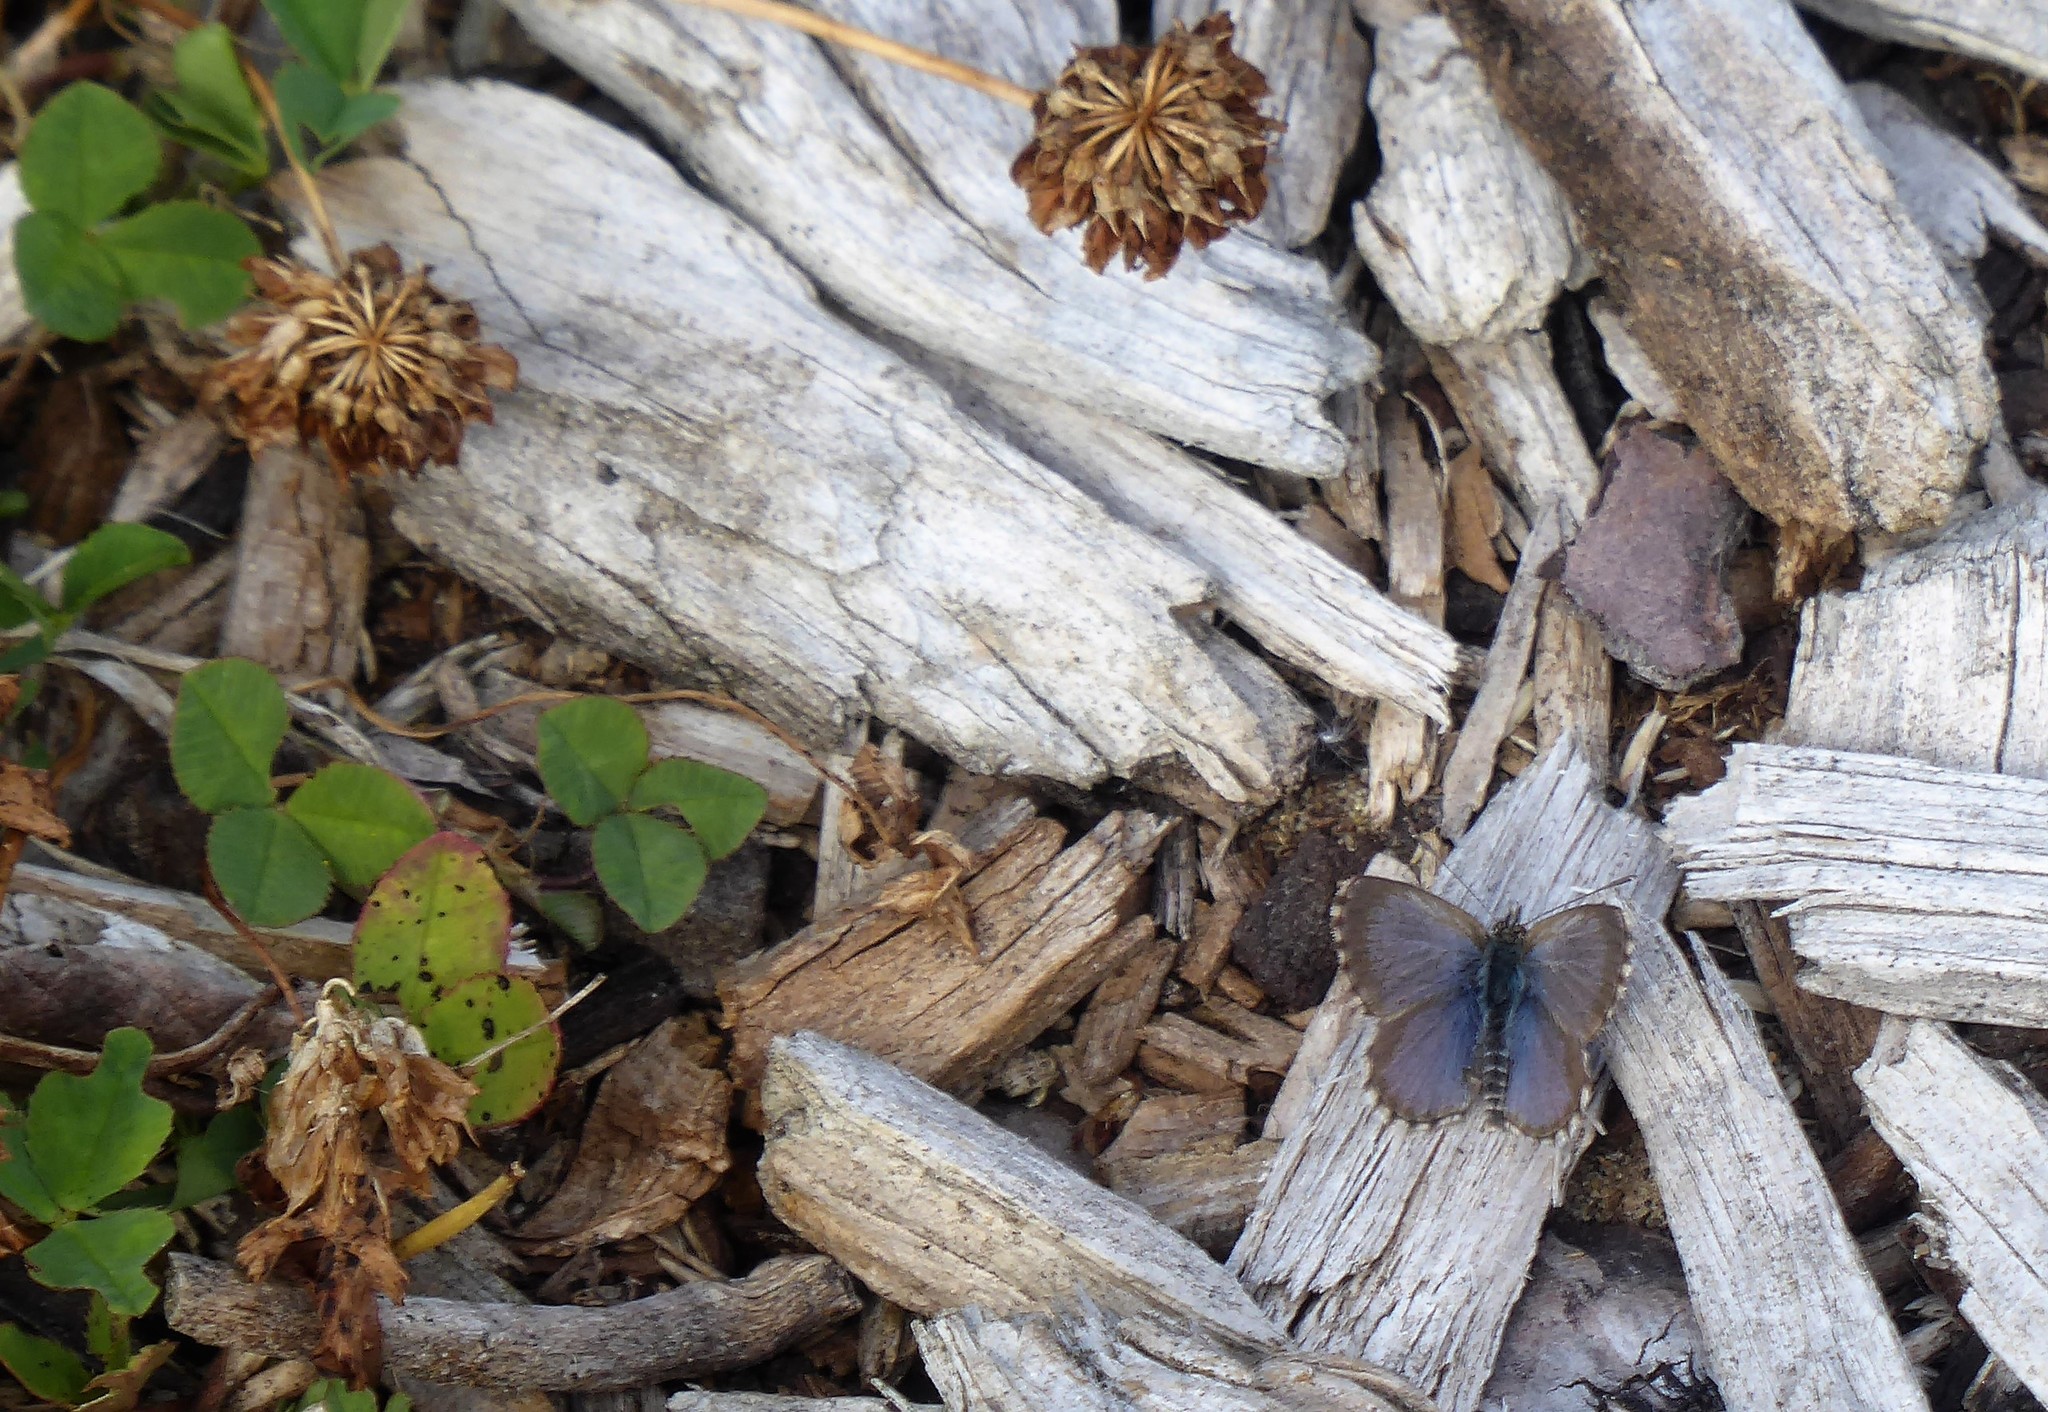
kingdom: Animalia
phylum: Arthropoda
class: Insecta
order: Lepidoptera
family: Lycaenidae
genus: Zizina
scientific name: Zizina oxleyi
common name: Southern blue
